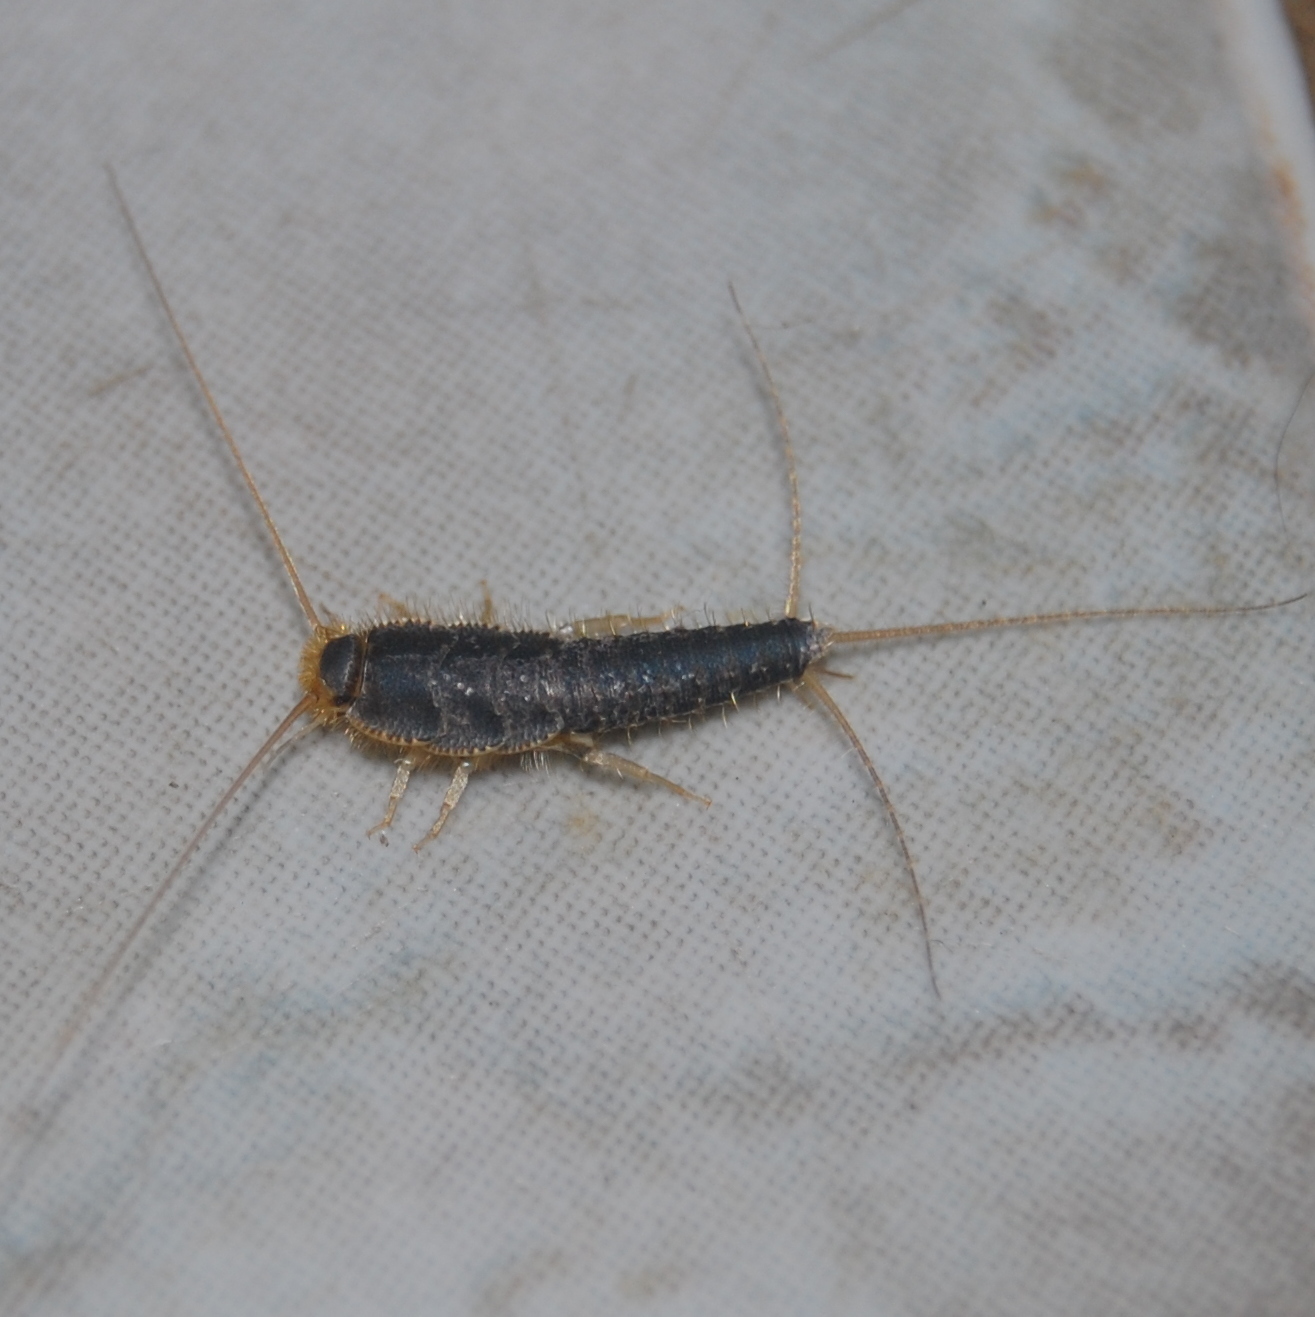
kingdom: Animalia
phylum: Arthropoda
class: Insecta
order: Zygentoma
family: Lepismatidae
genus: Ctenolepisma
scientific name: Ctenolepisma longicaudatum
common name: Silverfish
